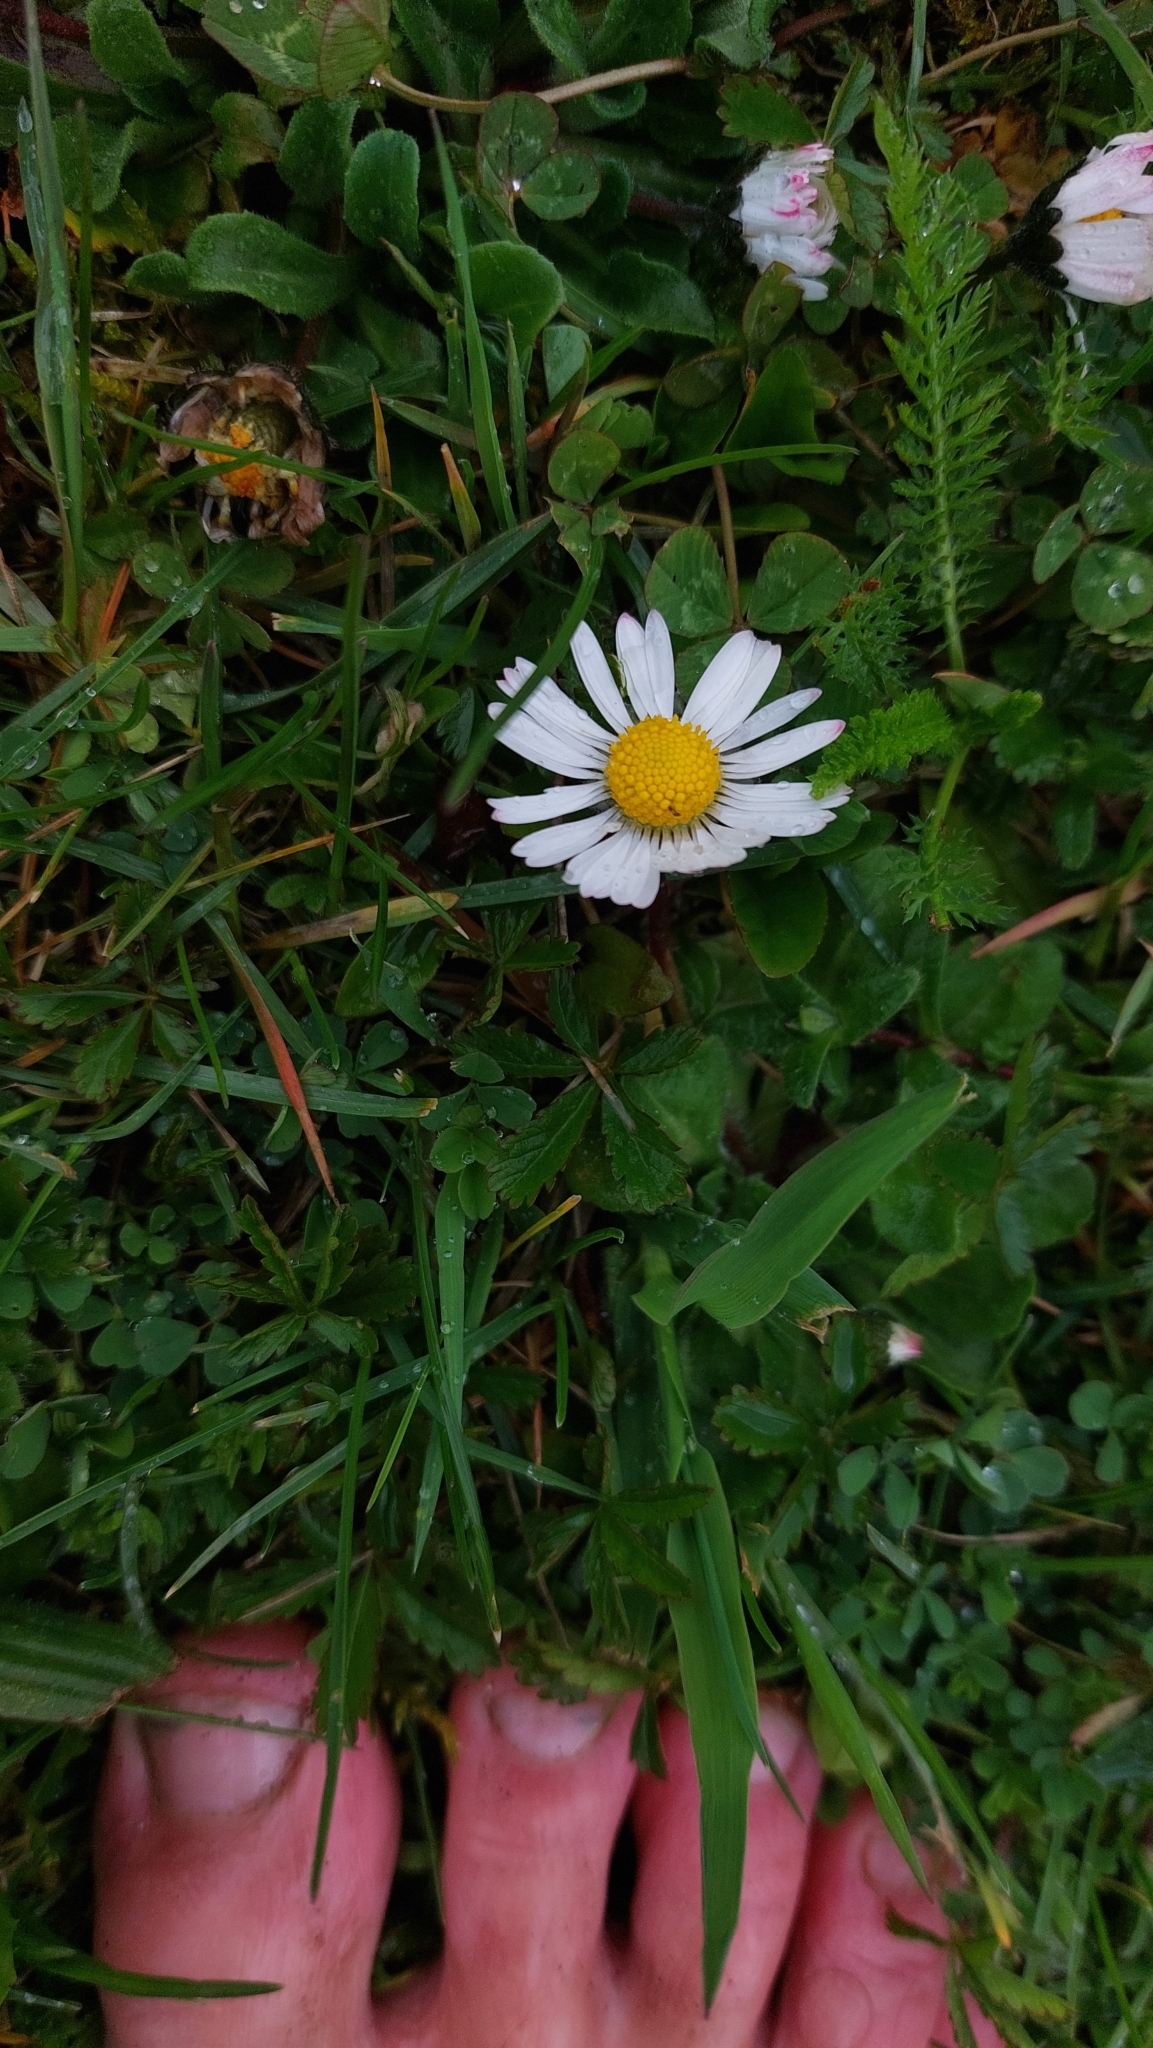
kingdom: Plantae
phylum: Tracheophyta
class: Magnoliopsida
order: Asterales
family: Asteraceae
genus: Bellis
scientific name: Bellis perennis
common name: Lawndaisy
